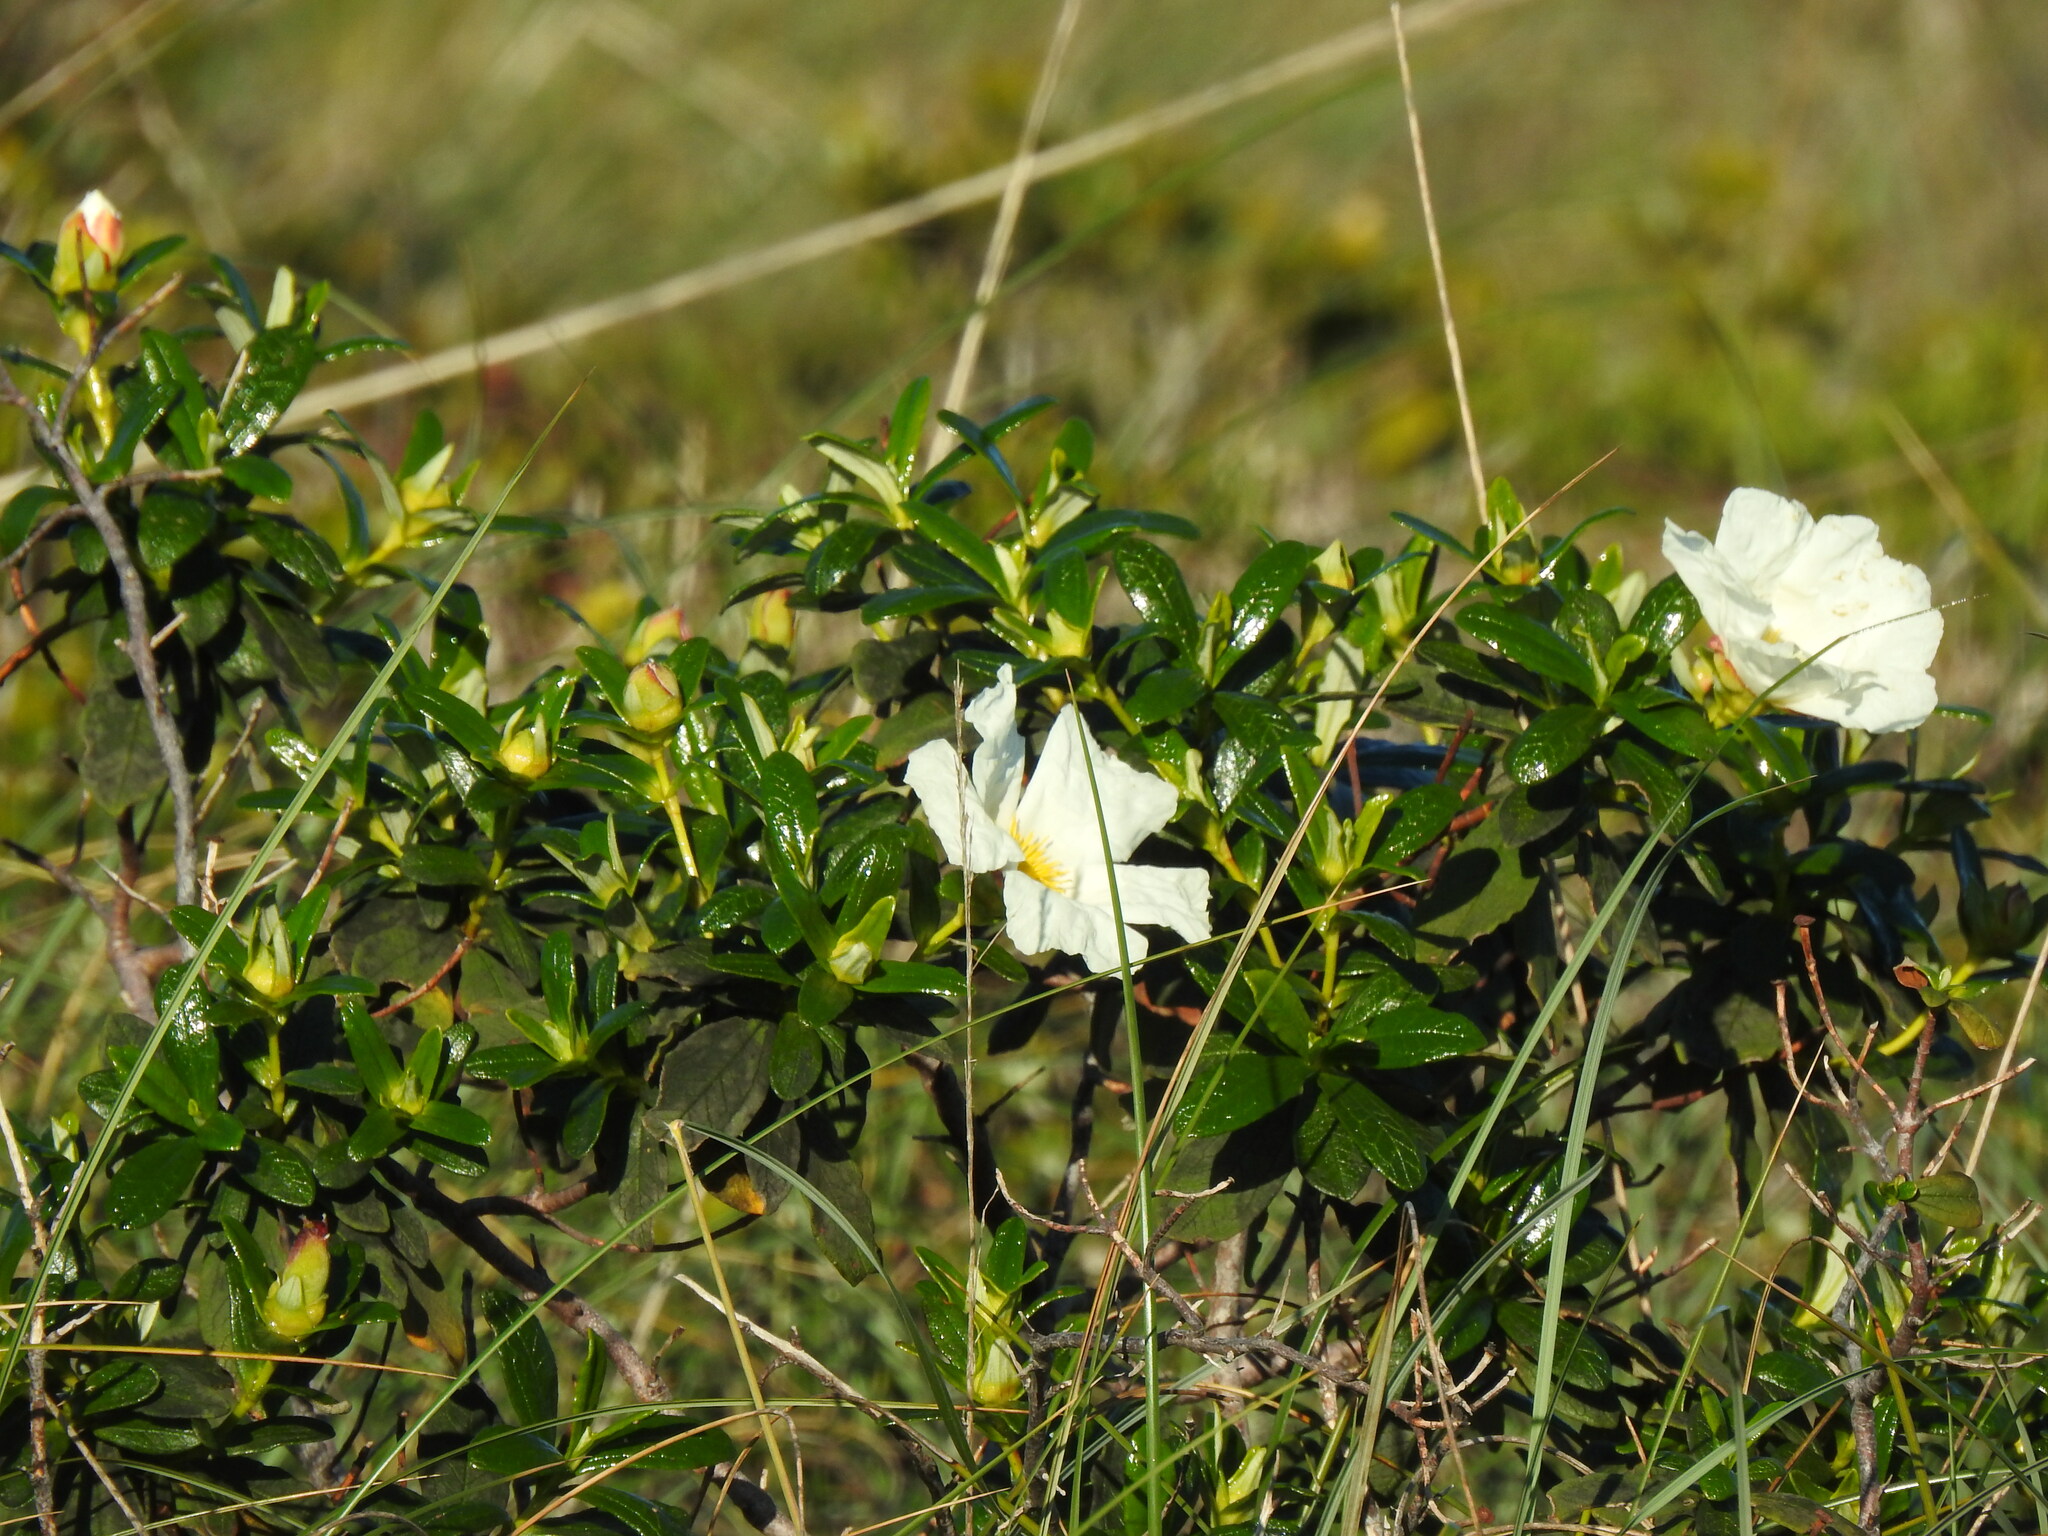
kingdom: Plantae
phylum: Tracheophyta
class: Magnoliopsida
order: Malvales
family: Cistaceae
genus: Cistus
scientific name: Cistus ladanifer
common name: Common gum cistus
